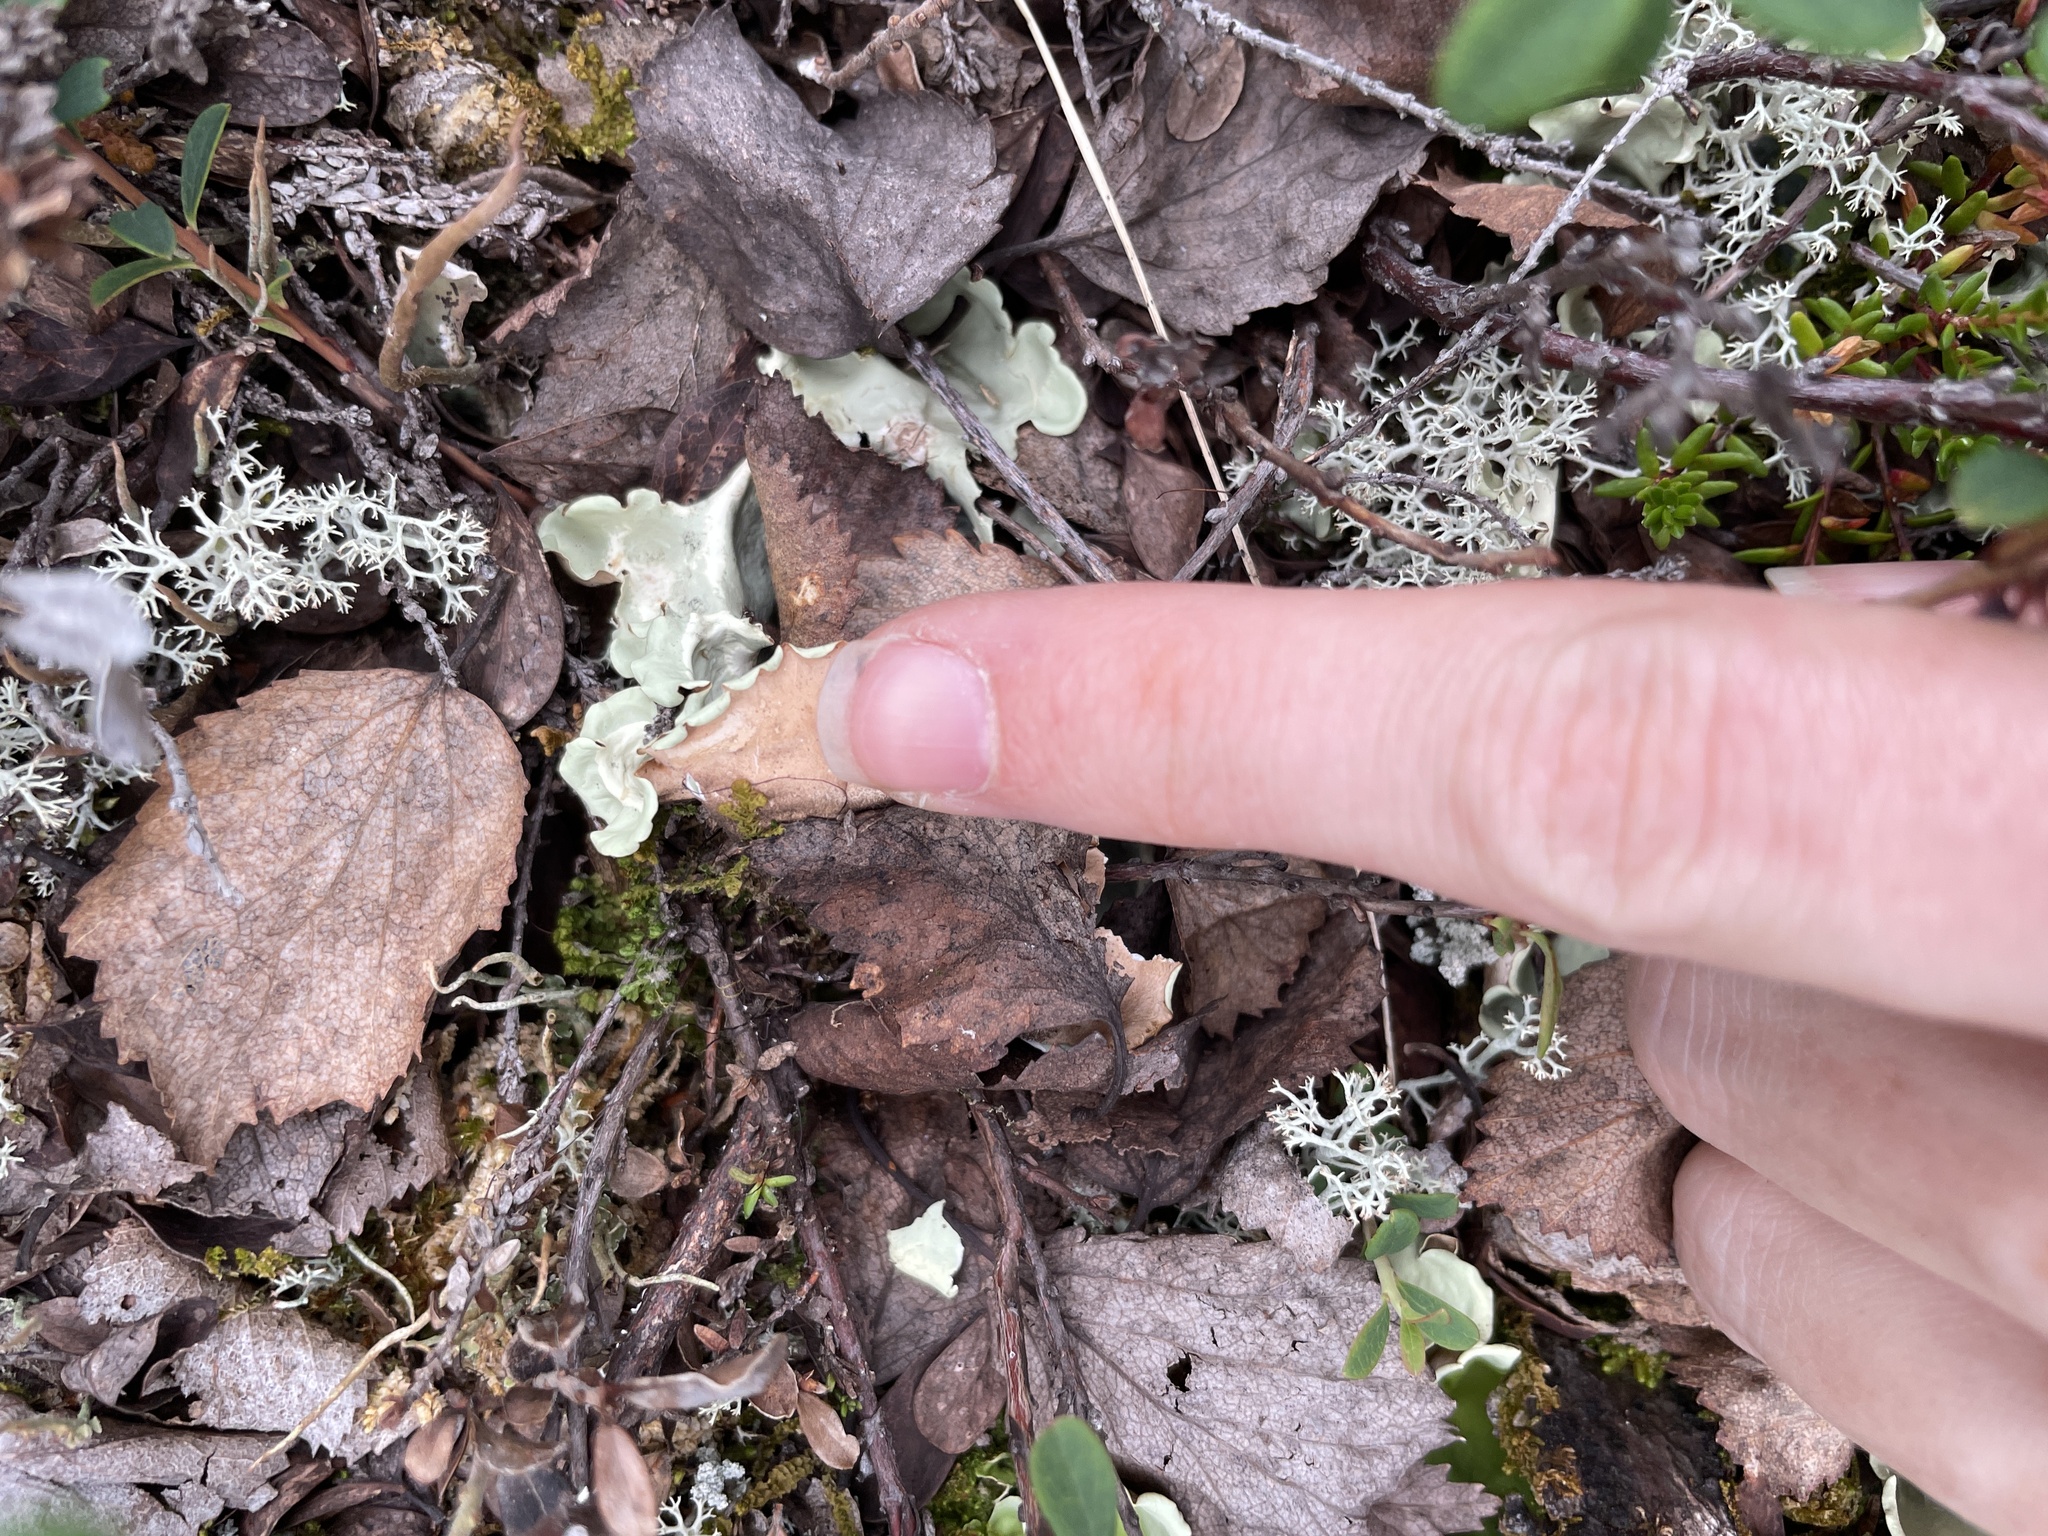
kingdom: Fungi
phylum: Ascomycota
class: Lecanoromycetes
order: Peltigerales
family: Nephromataceae
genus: Nephroma
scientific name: Nephroma arcticum
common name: Arctic kidney-lichen
